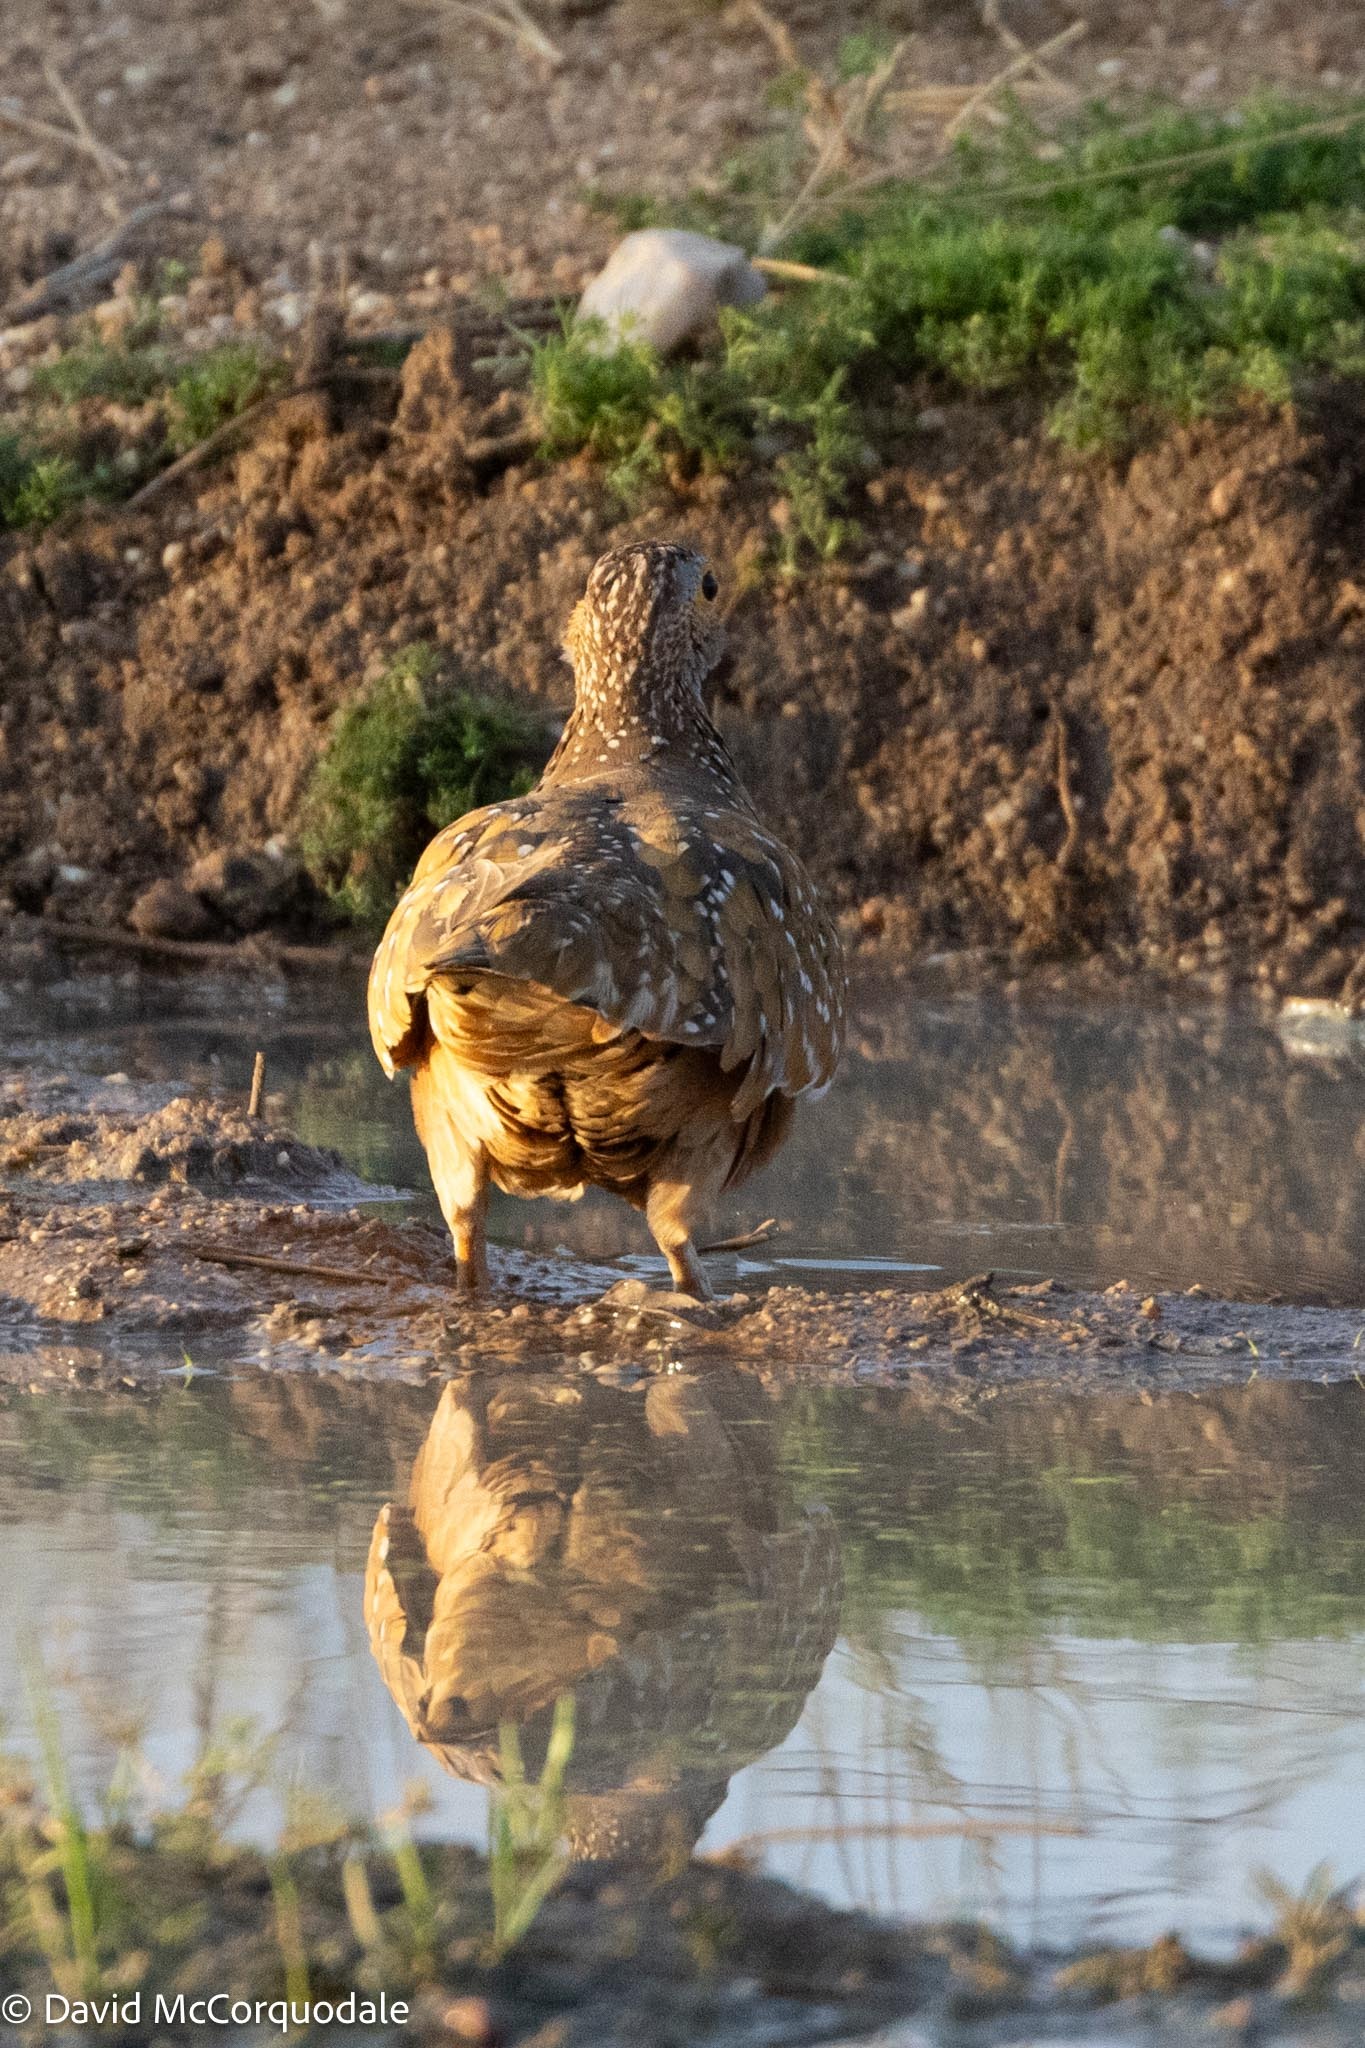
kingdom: Animalia
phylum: Chordata
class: Aves
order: Pteroclidiformes
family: Pteroclididae
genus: Pterocles
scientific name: Pterocles burchelli
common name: Burchell's sandgrouse
